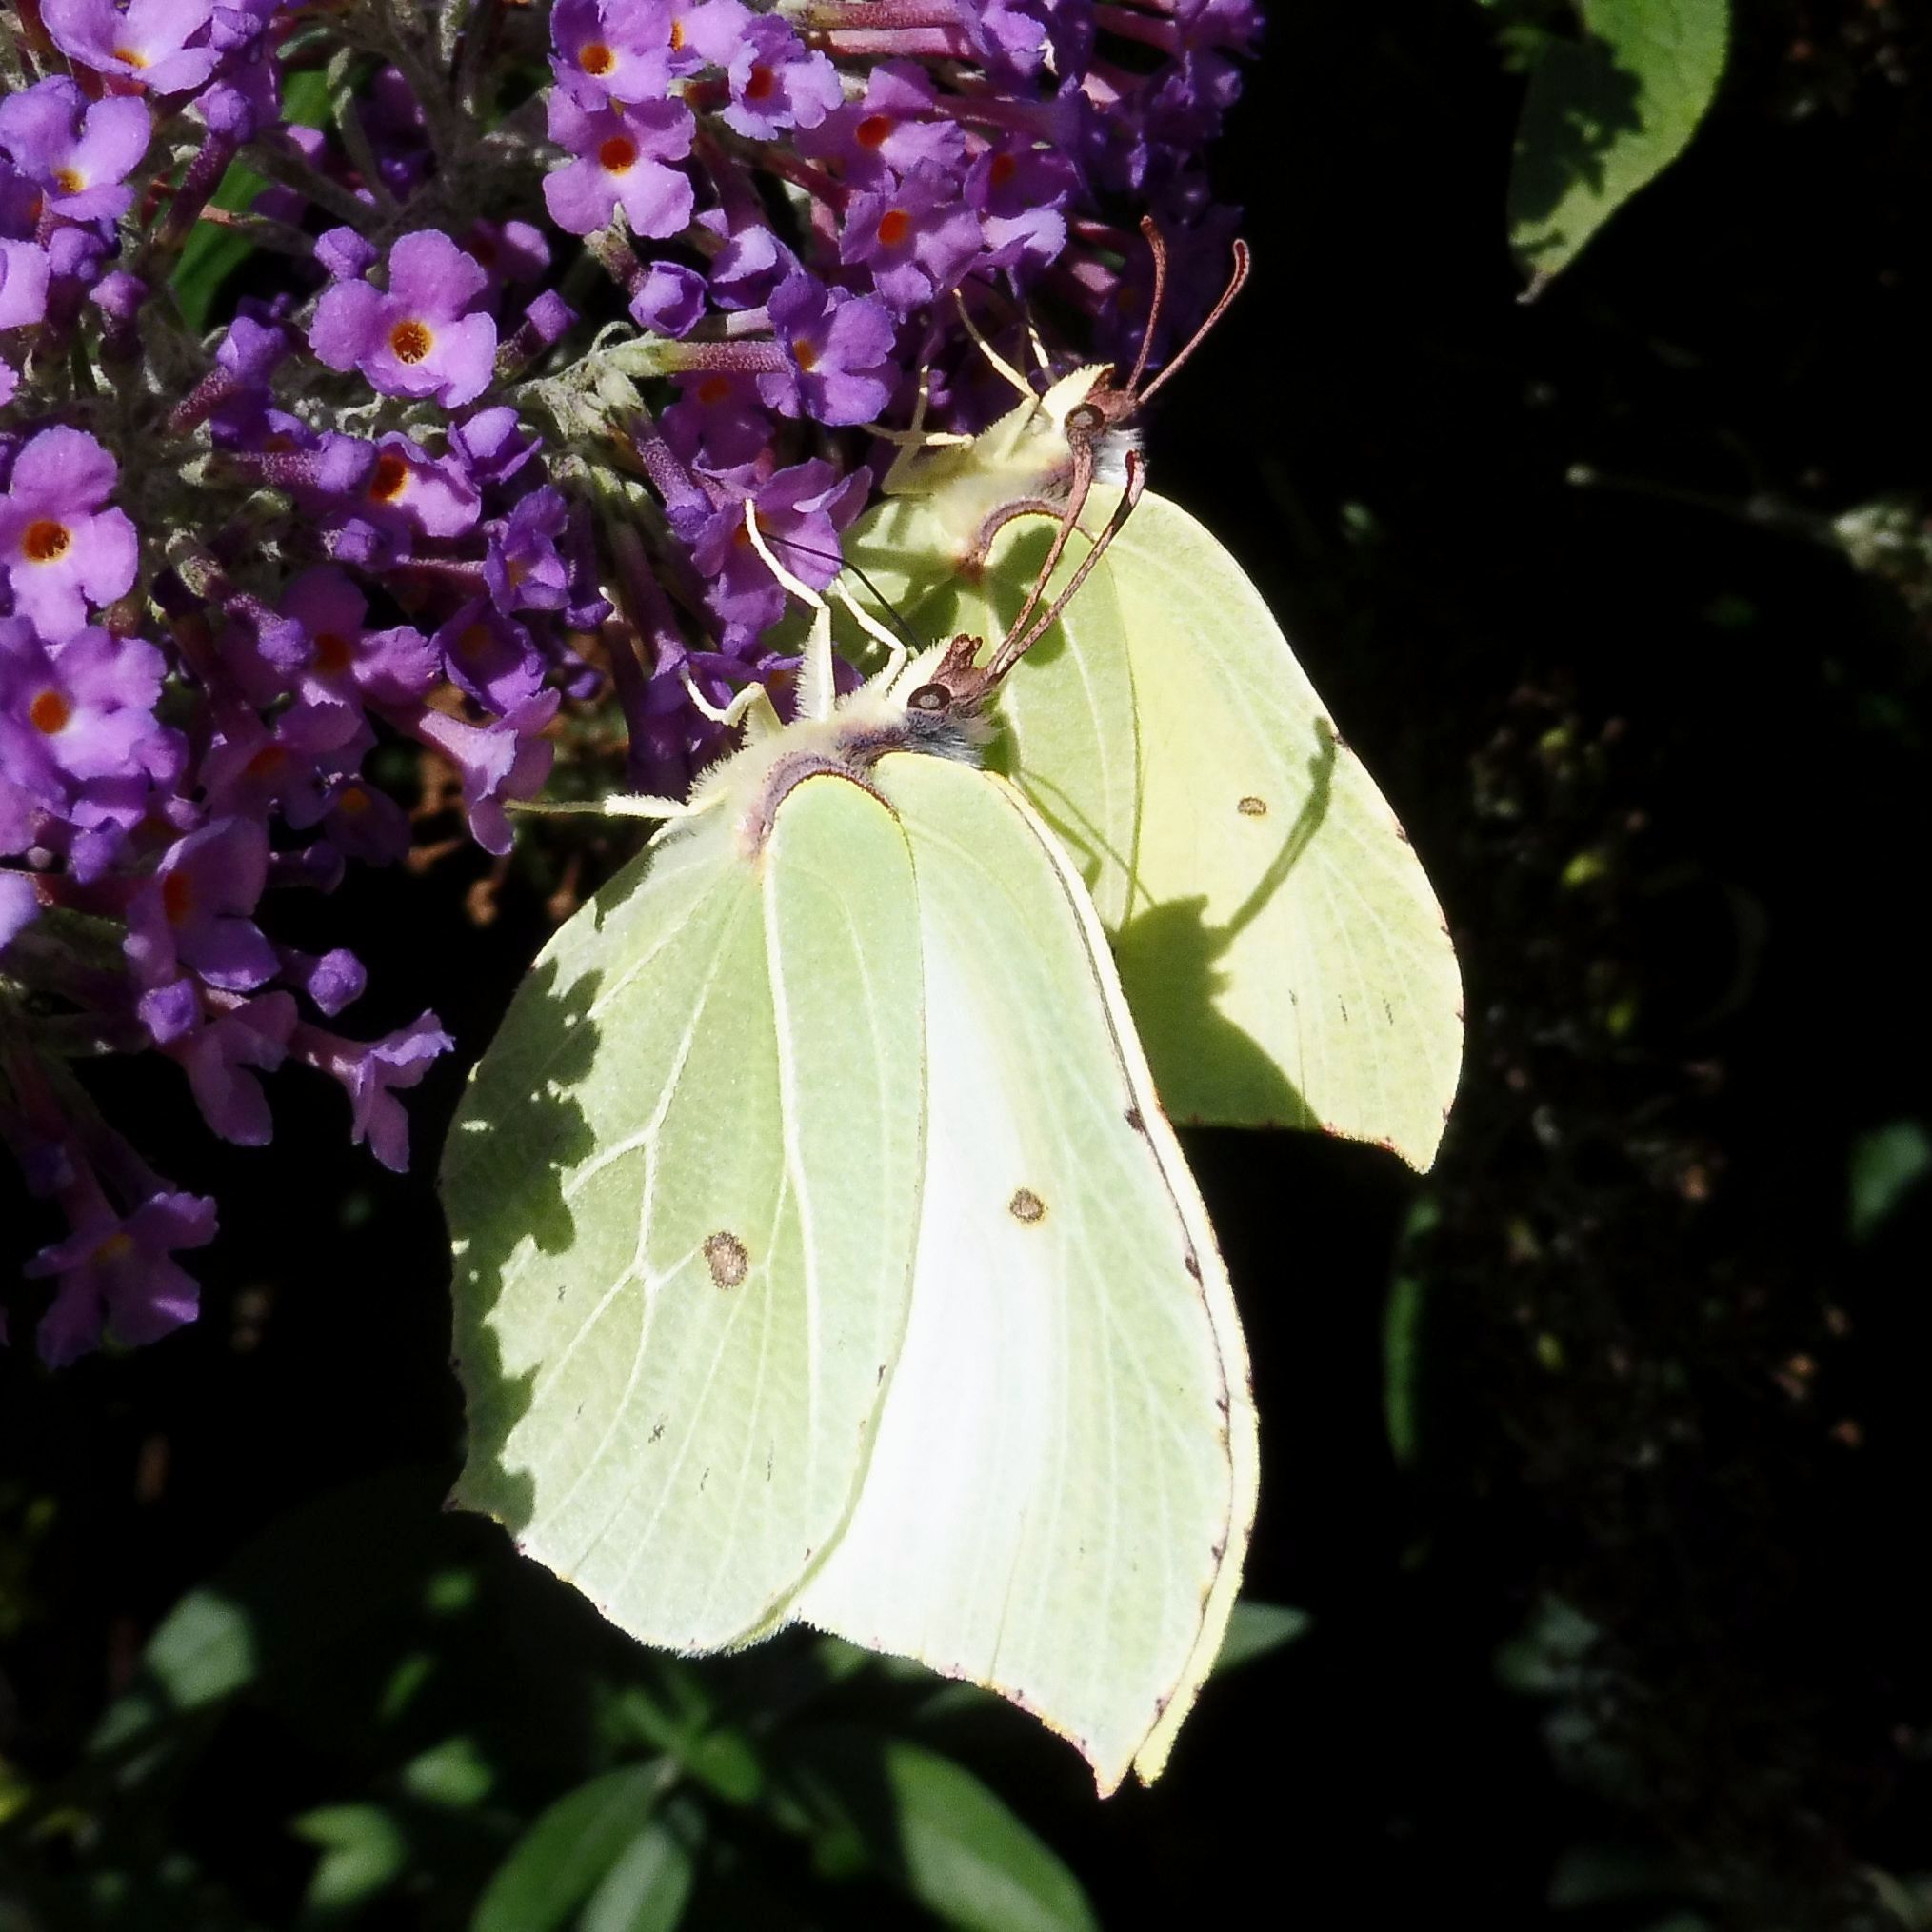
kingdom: Animalia
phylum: Arthropoda
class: Insecta
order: Lepidoptera
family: Pieridae
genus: Gonepteryx
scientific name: Gonepteryx rhamni
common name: Brimstone
